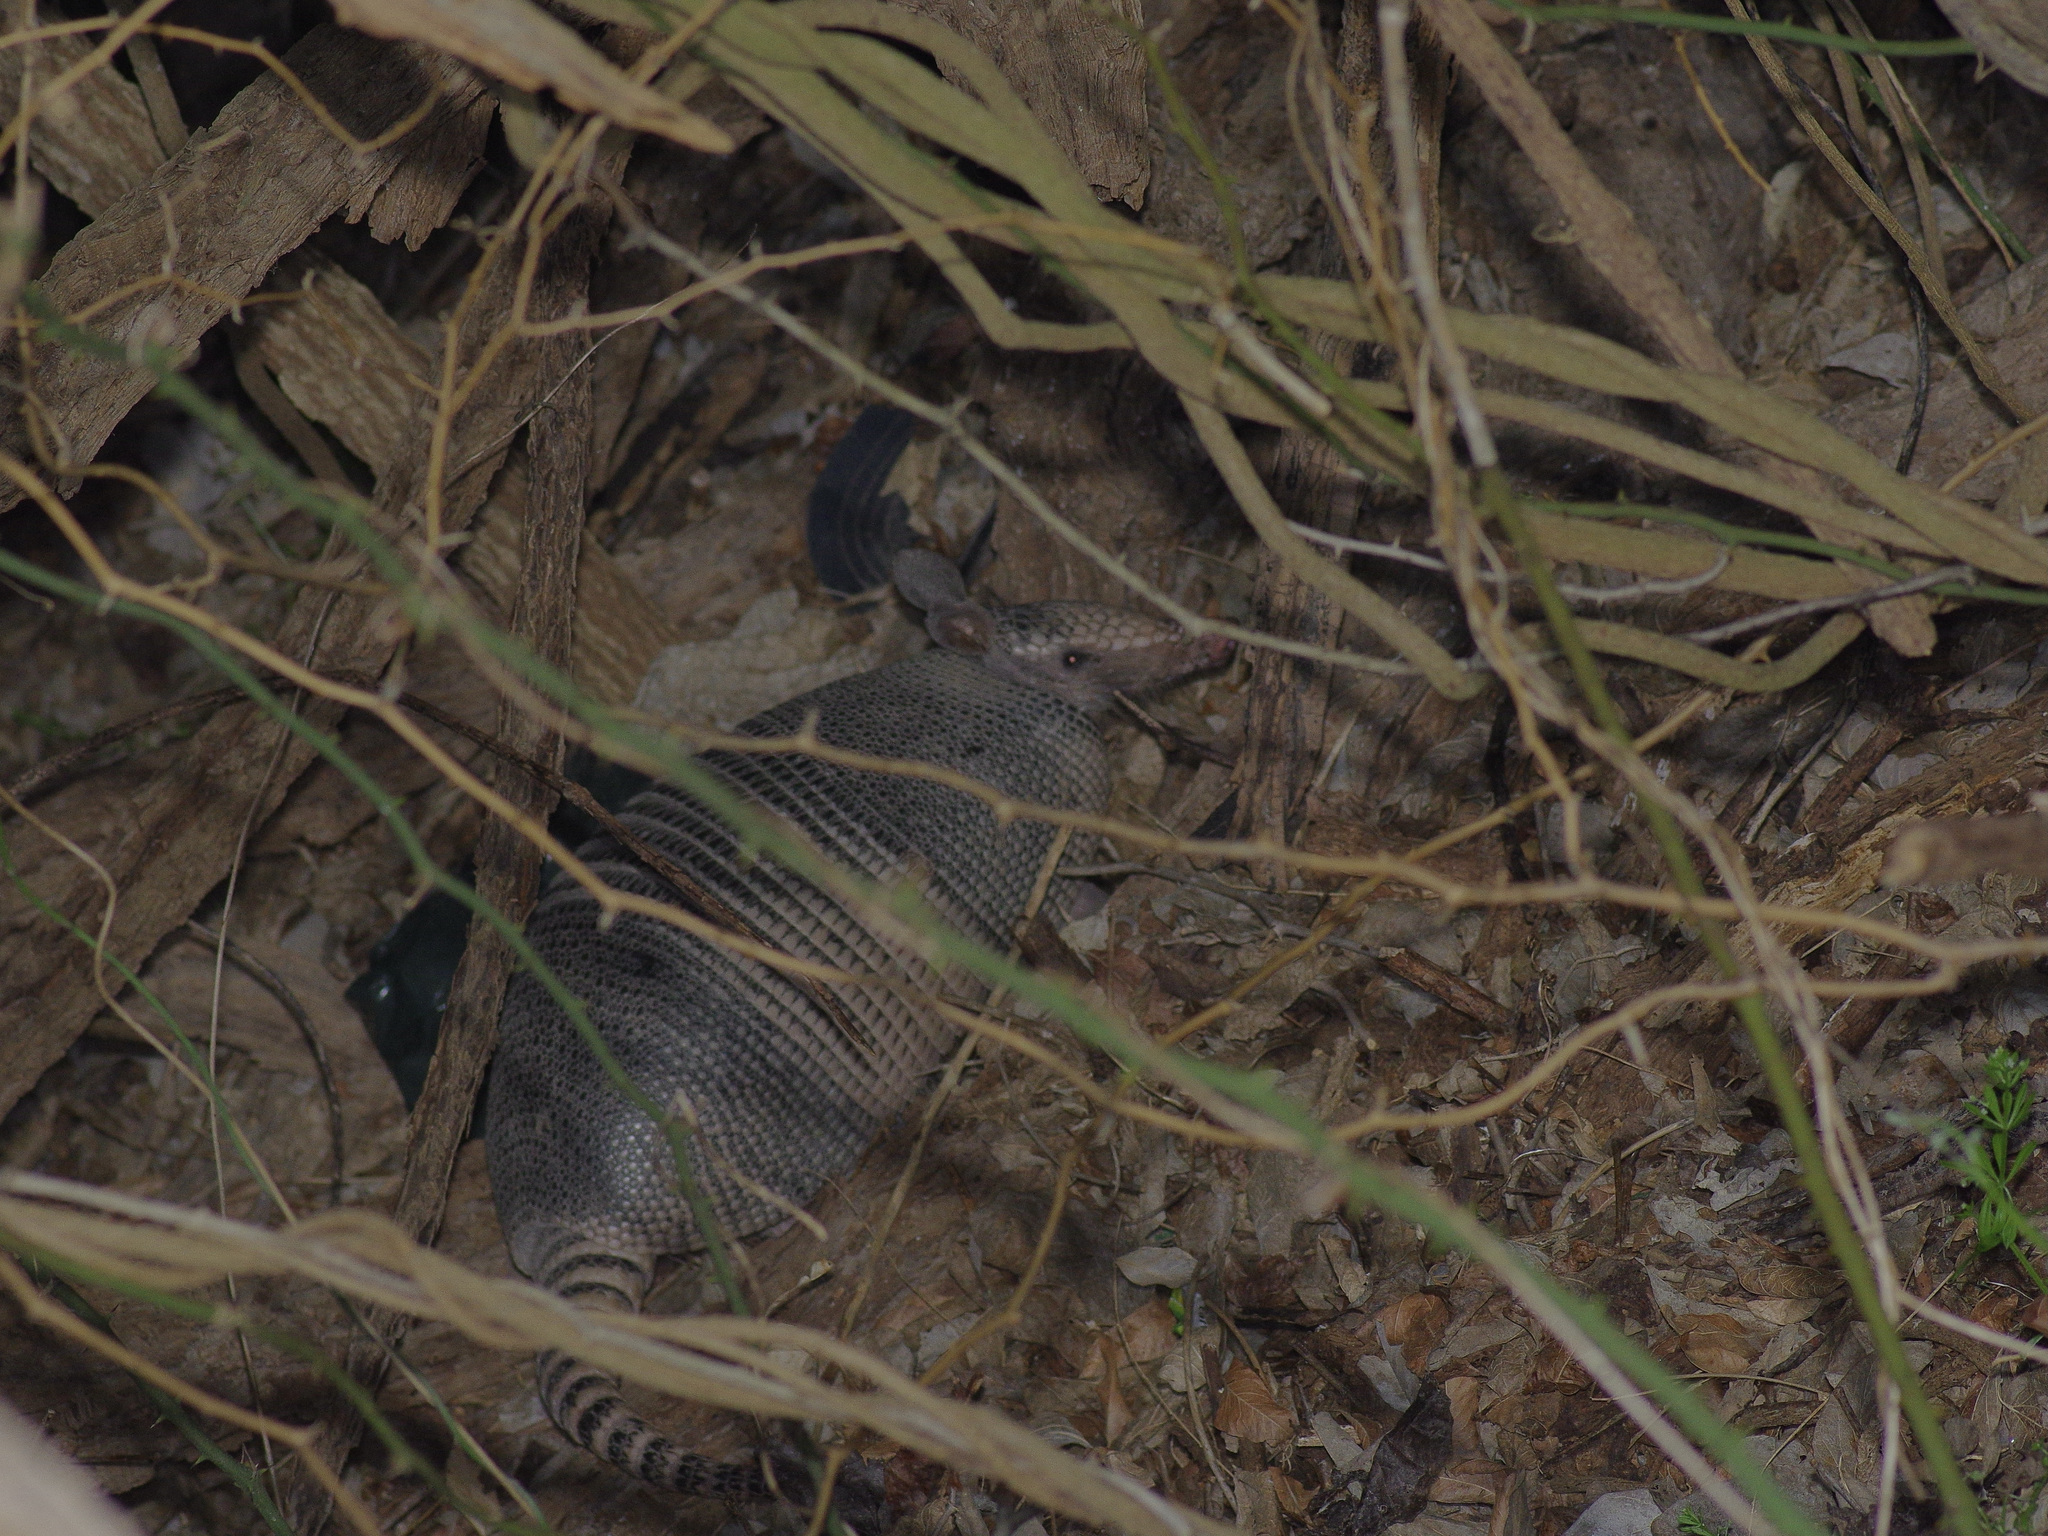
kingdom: Animalia
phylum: Chordata
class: Mammalia
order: Cingulata
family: Dasypodidae
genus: Dasypus
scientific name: Dasypus novemcinctus
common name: Nine-banded armadillo
